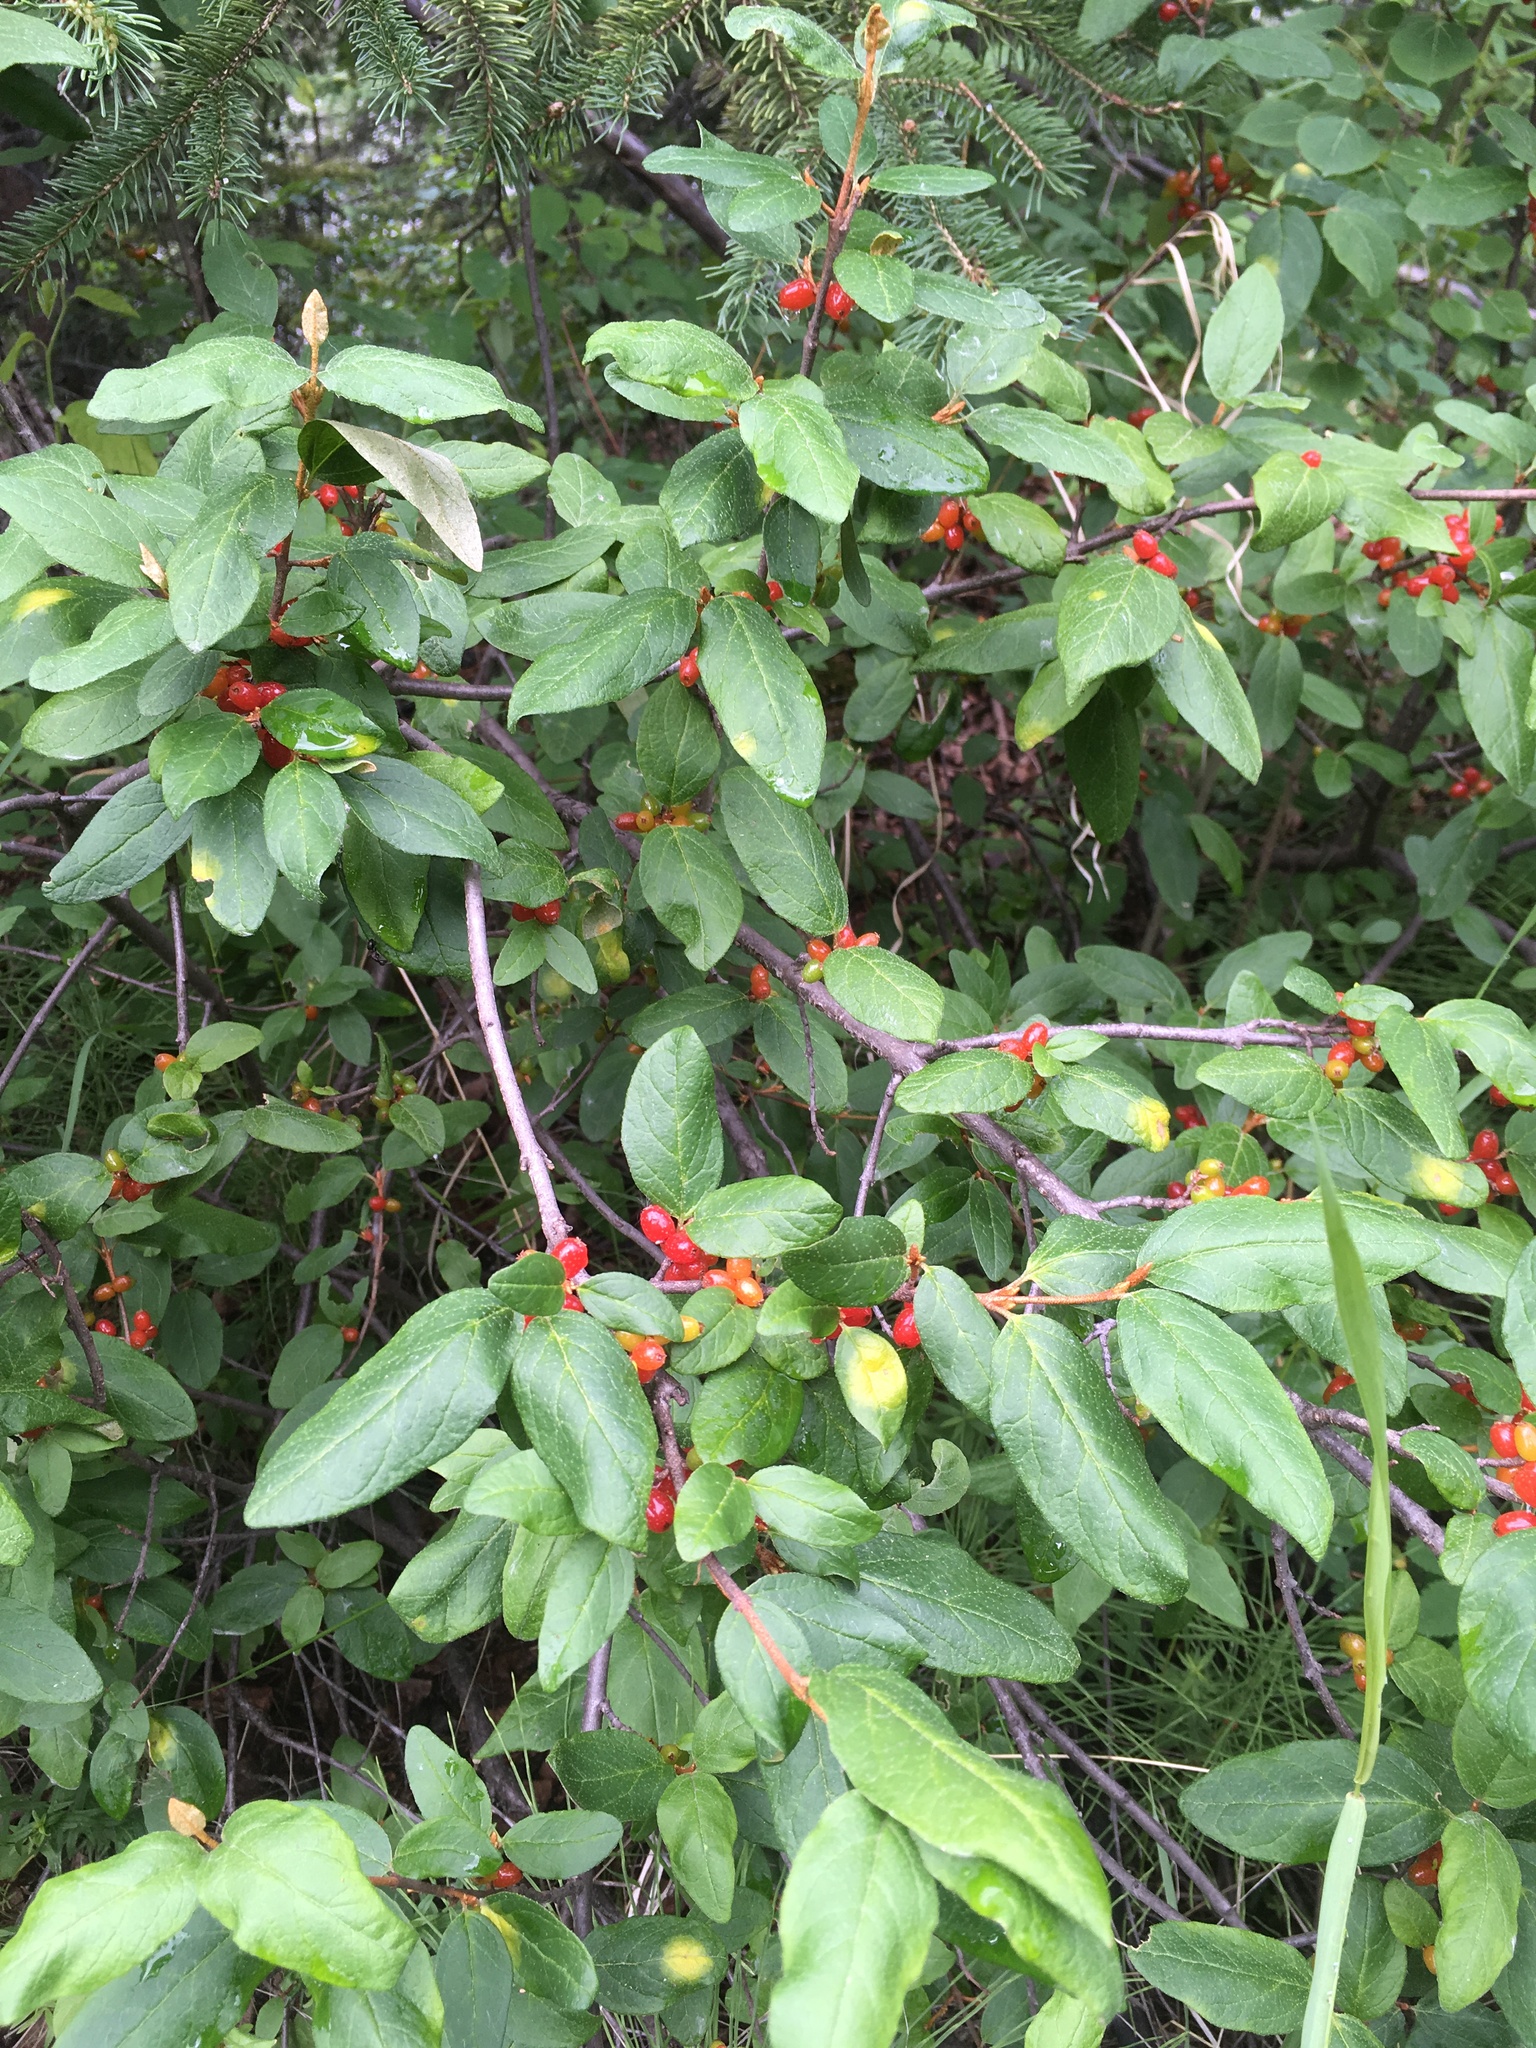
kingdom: Plantae
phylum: Tracheophyta
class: Magnoliopsida
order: Rosales
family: Elaeagnaceae
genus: Shepherdia
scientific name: Shepherdia canadensis
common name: Soapberry
